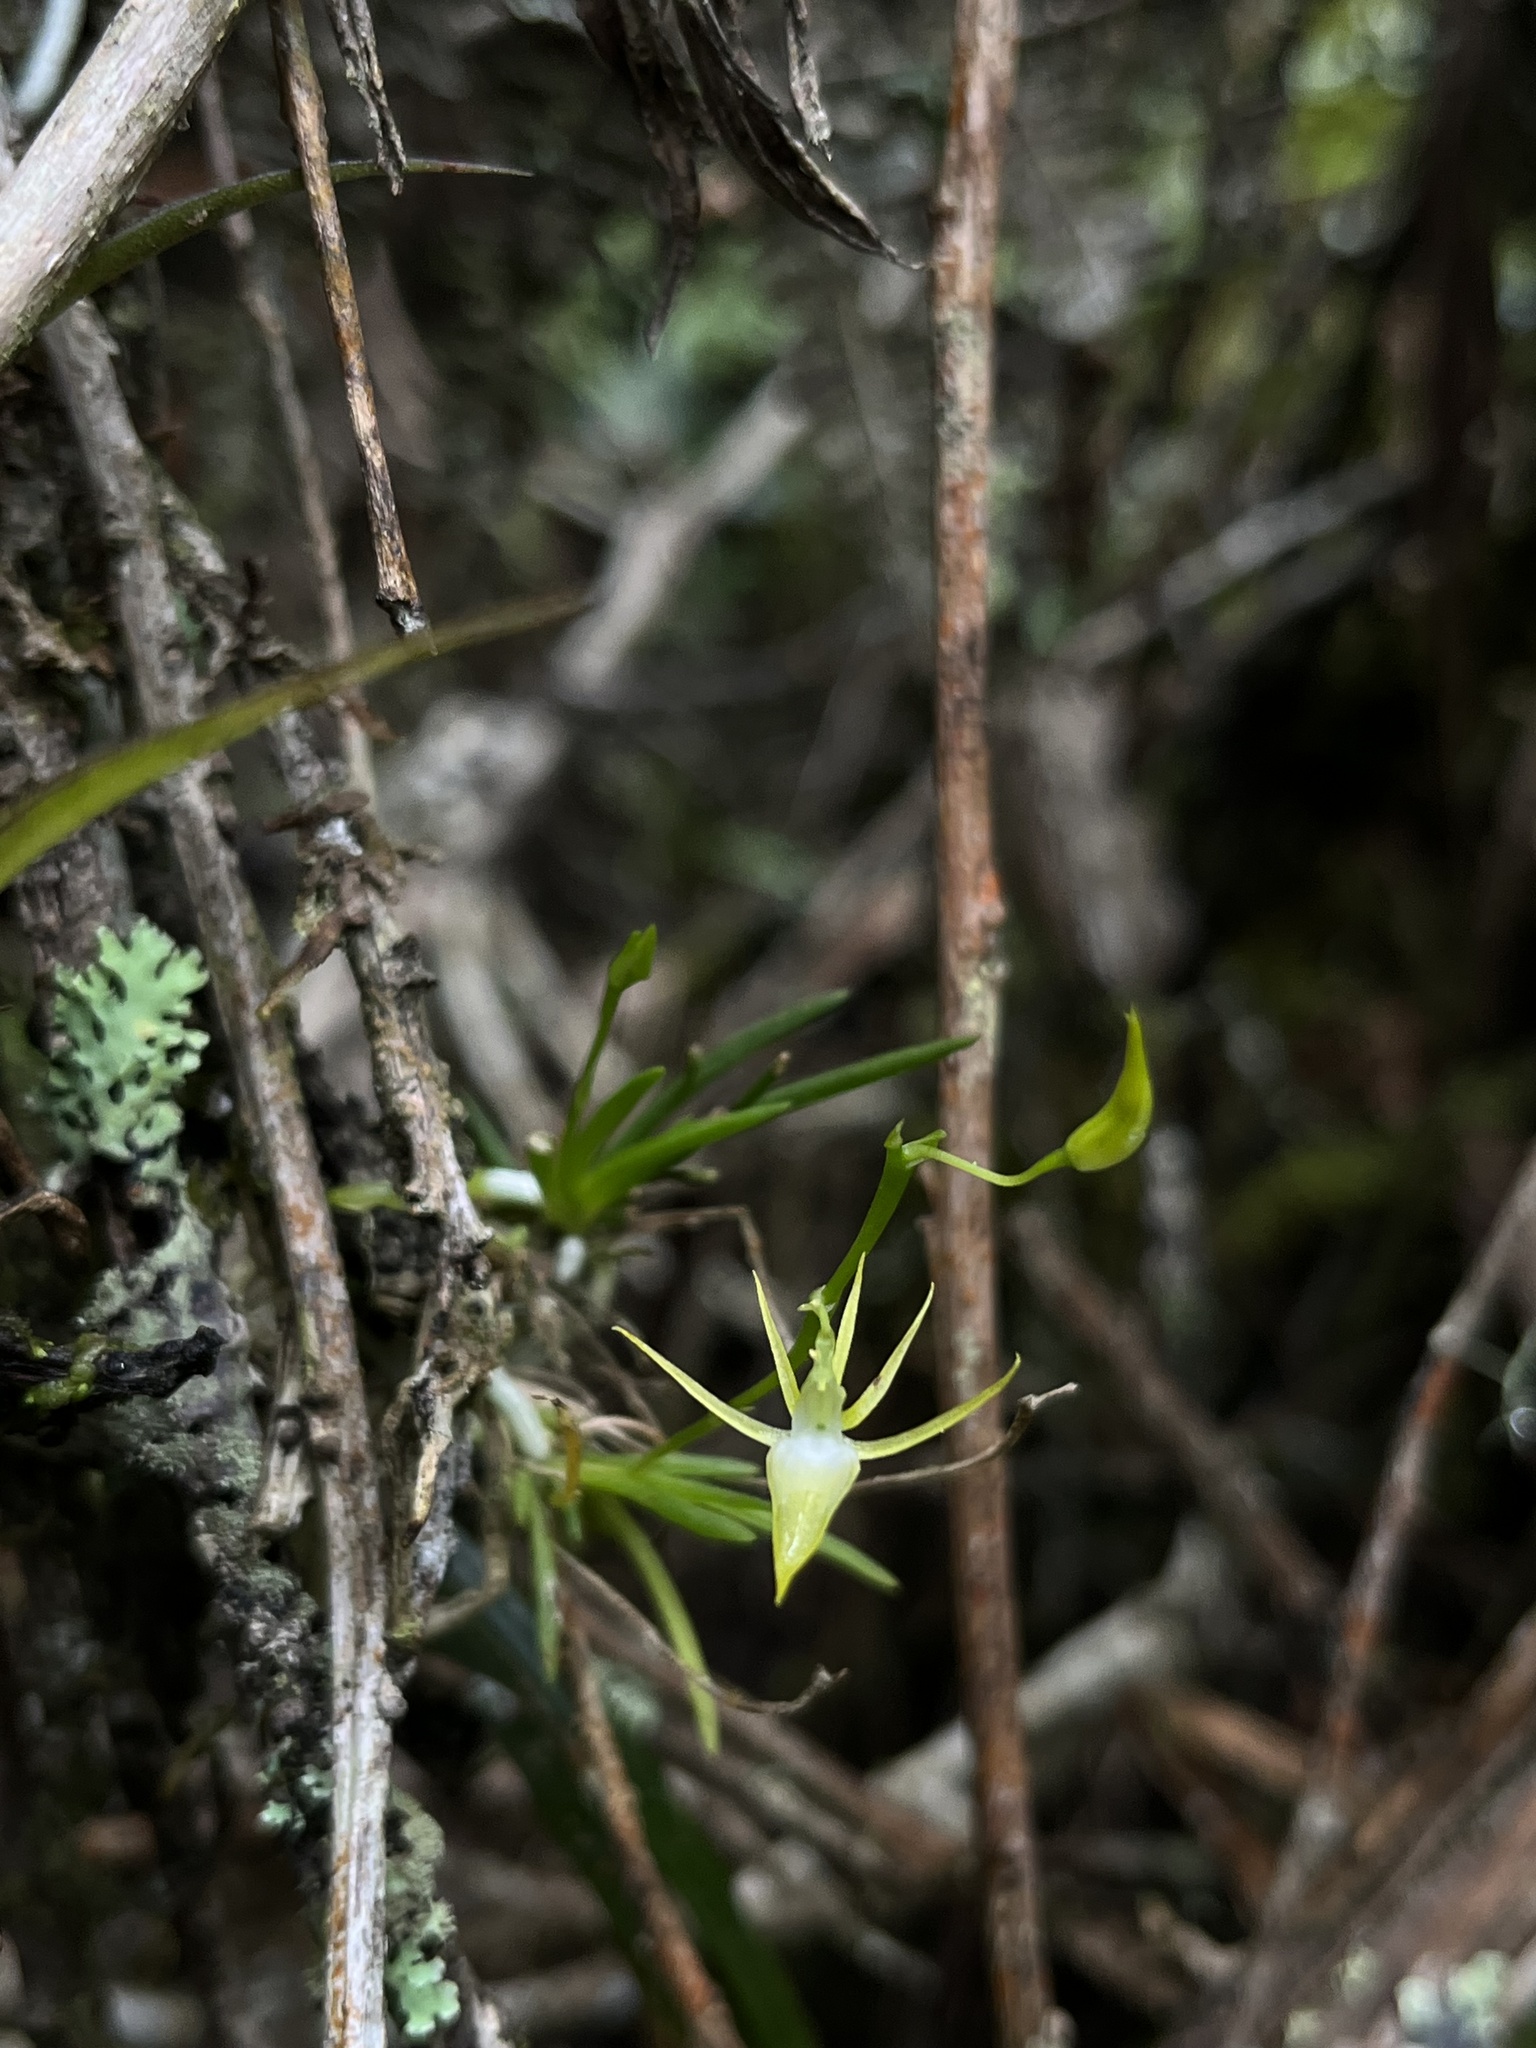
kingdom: Plantae
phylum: Tracheophyta
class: Liliopsida
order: Asparagales
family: Orchidaceae
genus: Hofmeisterella
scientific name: Hofmeisterella eumicroscopica
